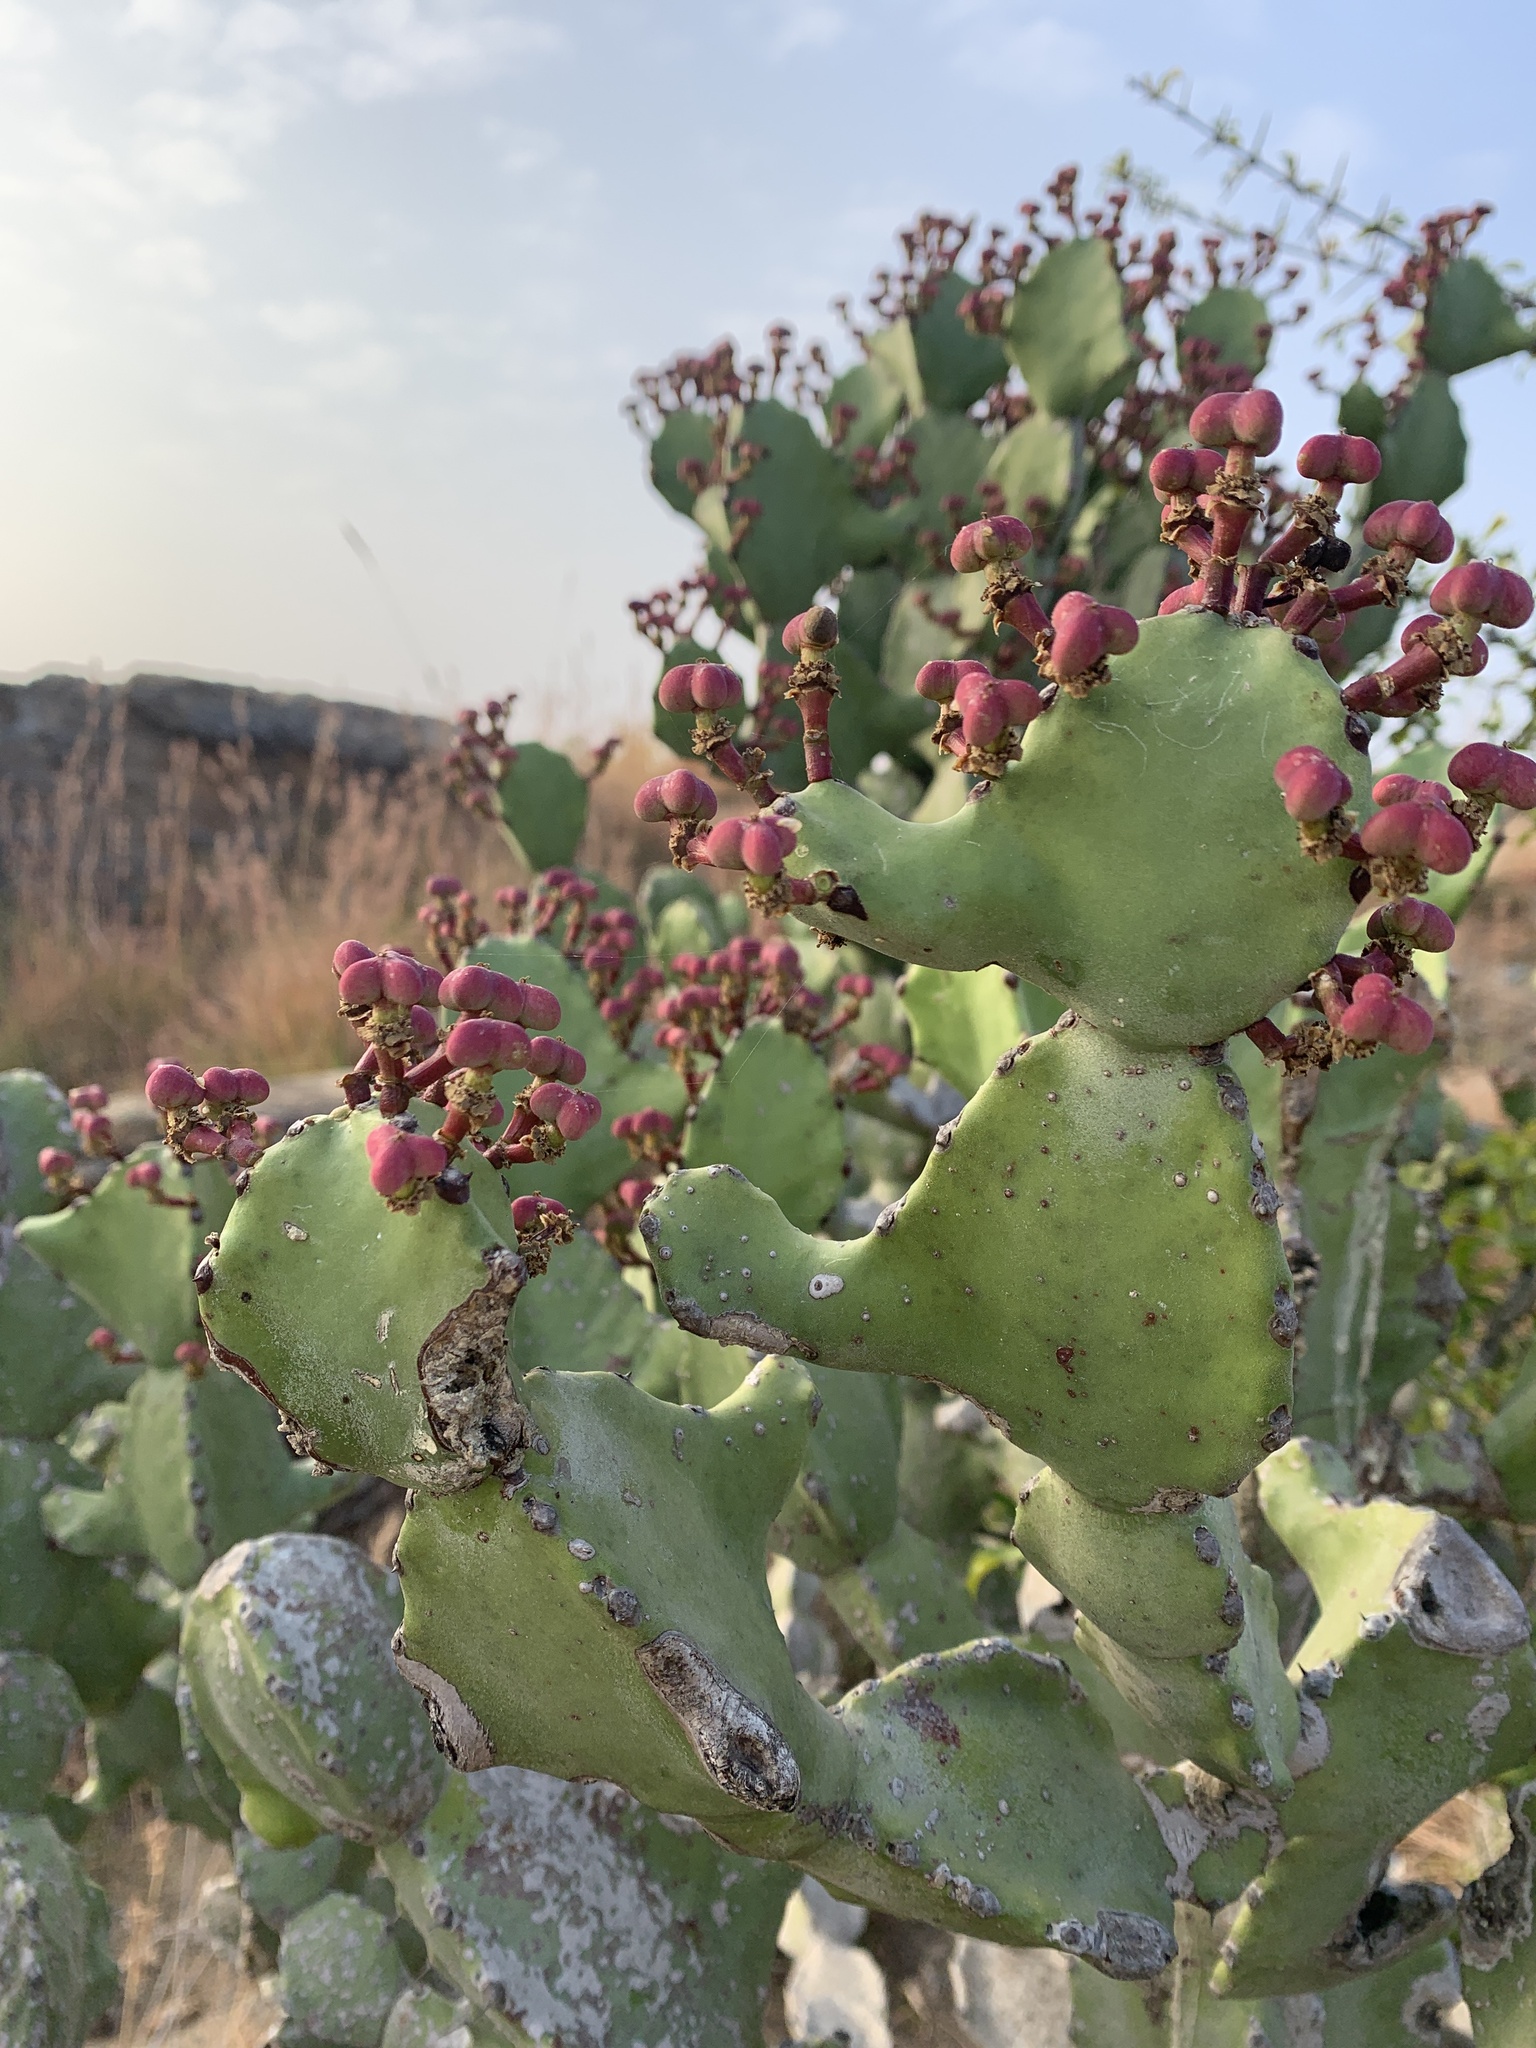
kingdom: Plantae
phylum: Tracheophyta
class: Magnoliopsida
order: Malpighiales
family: Euphorbiaceae
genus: Euphorbia
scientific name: Euphorbia antiquorum
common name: Malayan spurge tree
